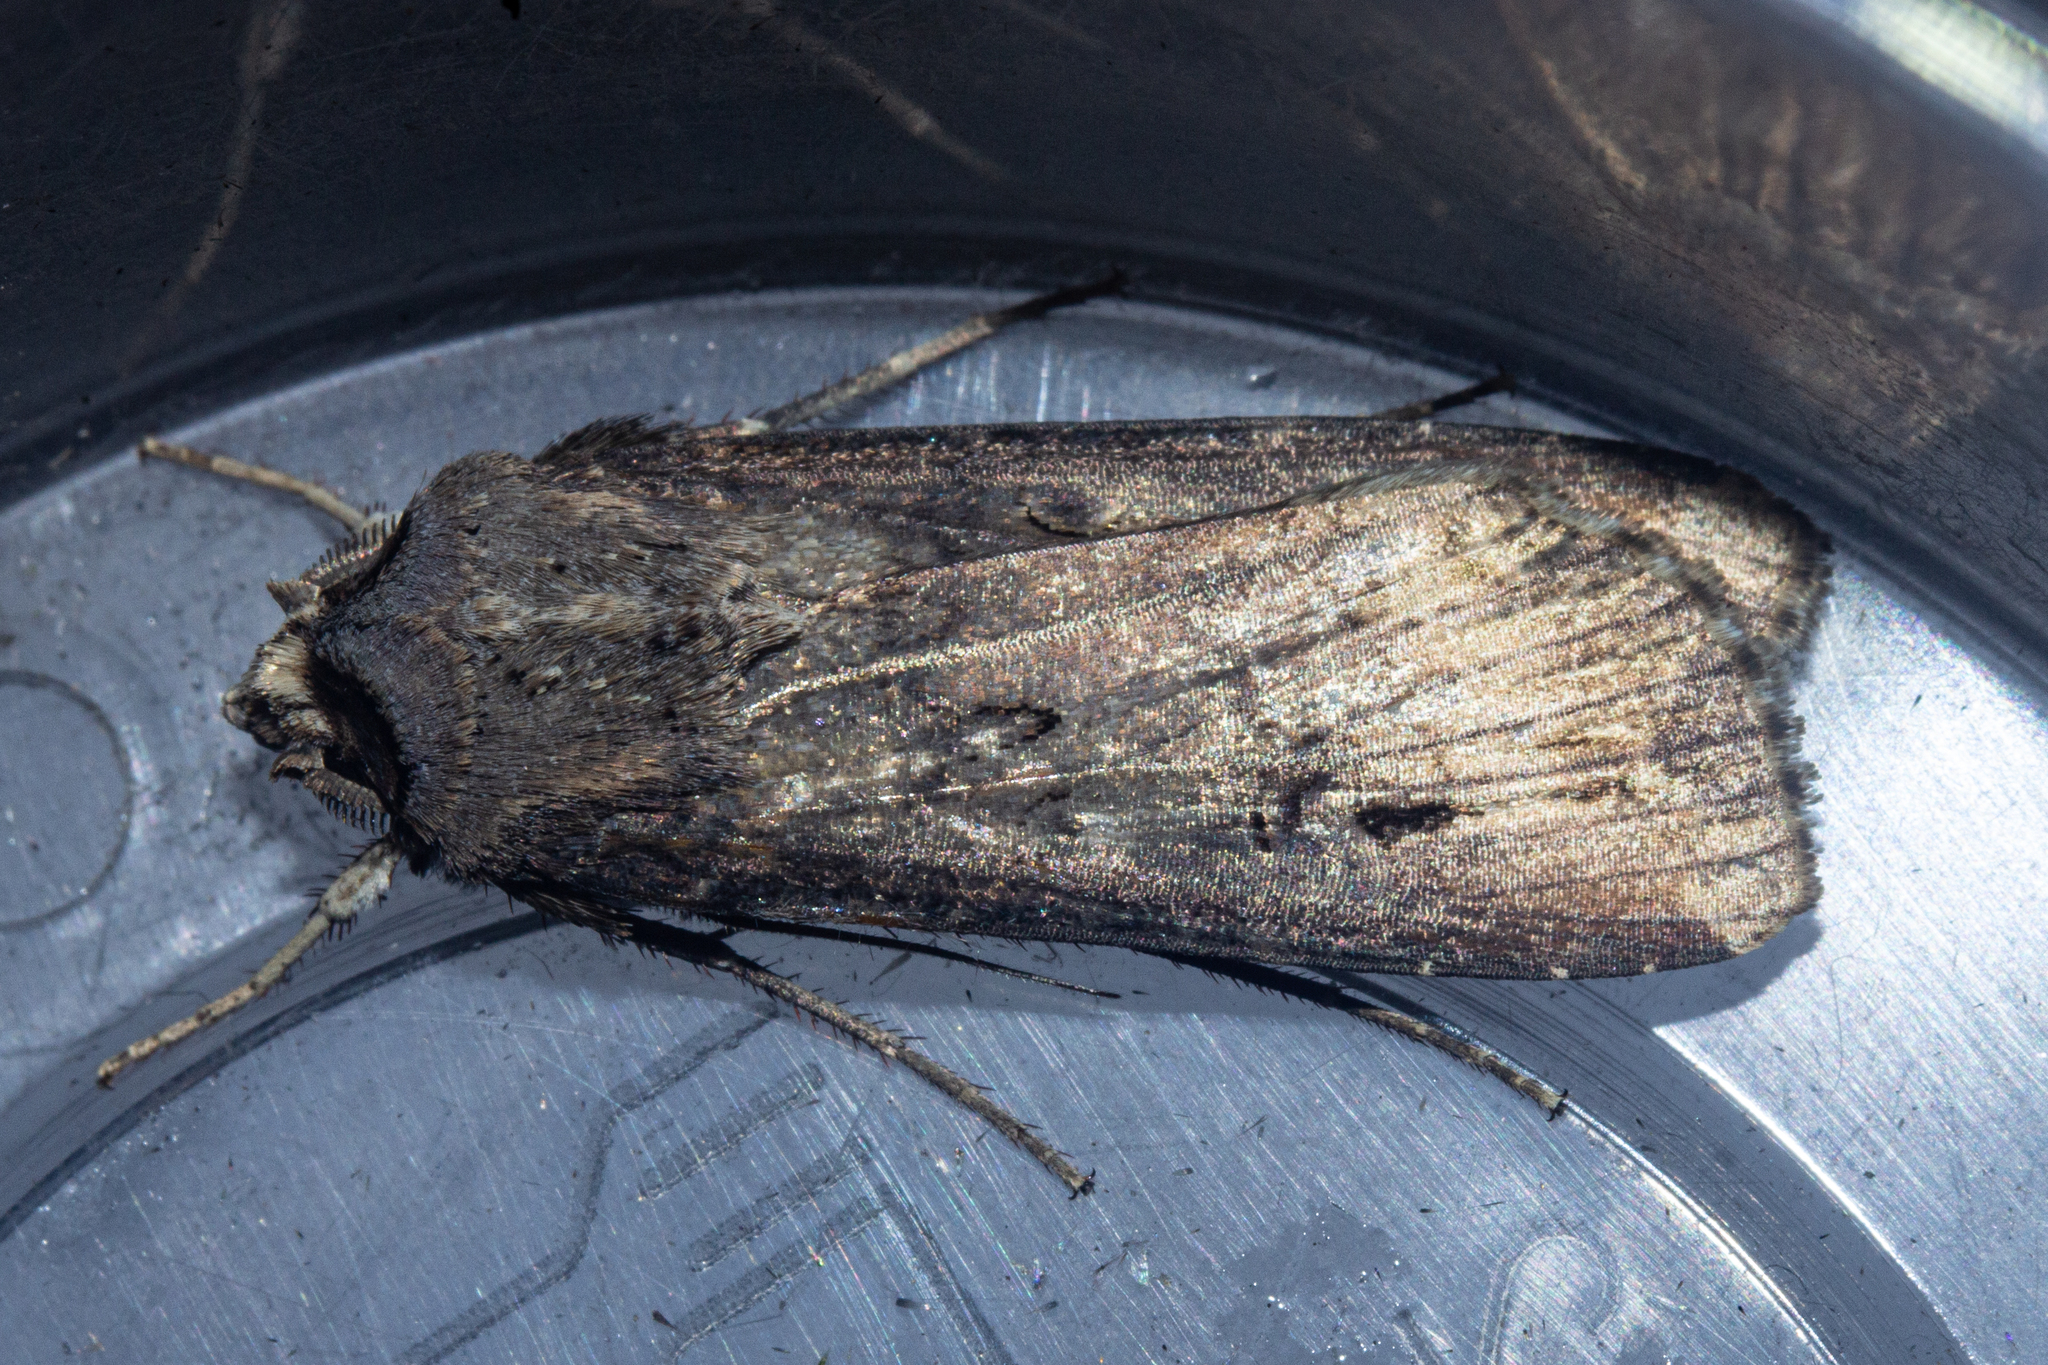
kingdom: Animalia
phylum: Arthropoda
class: Insecta
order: Lepidoptera
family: Noctuidae
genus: Agrotis
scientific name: Agrotis ipsilon
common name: Dark sword-grass
